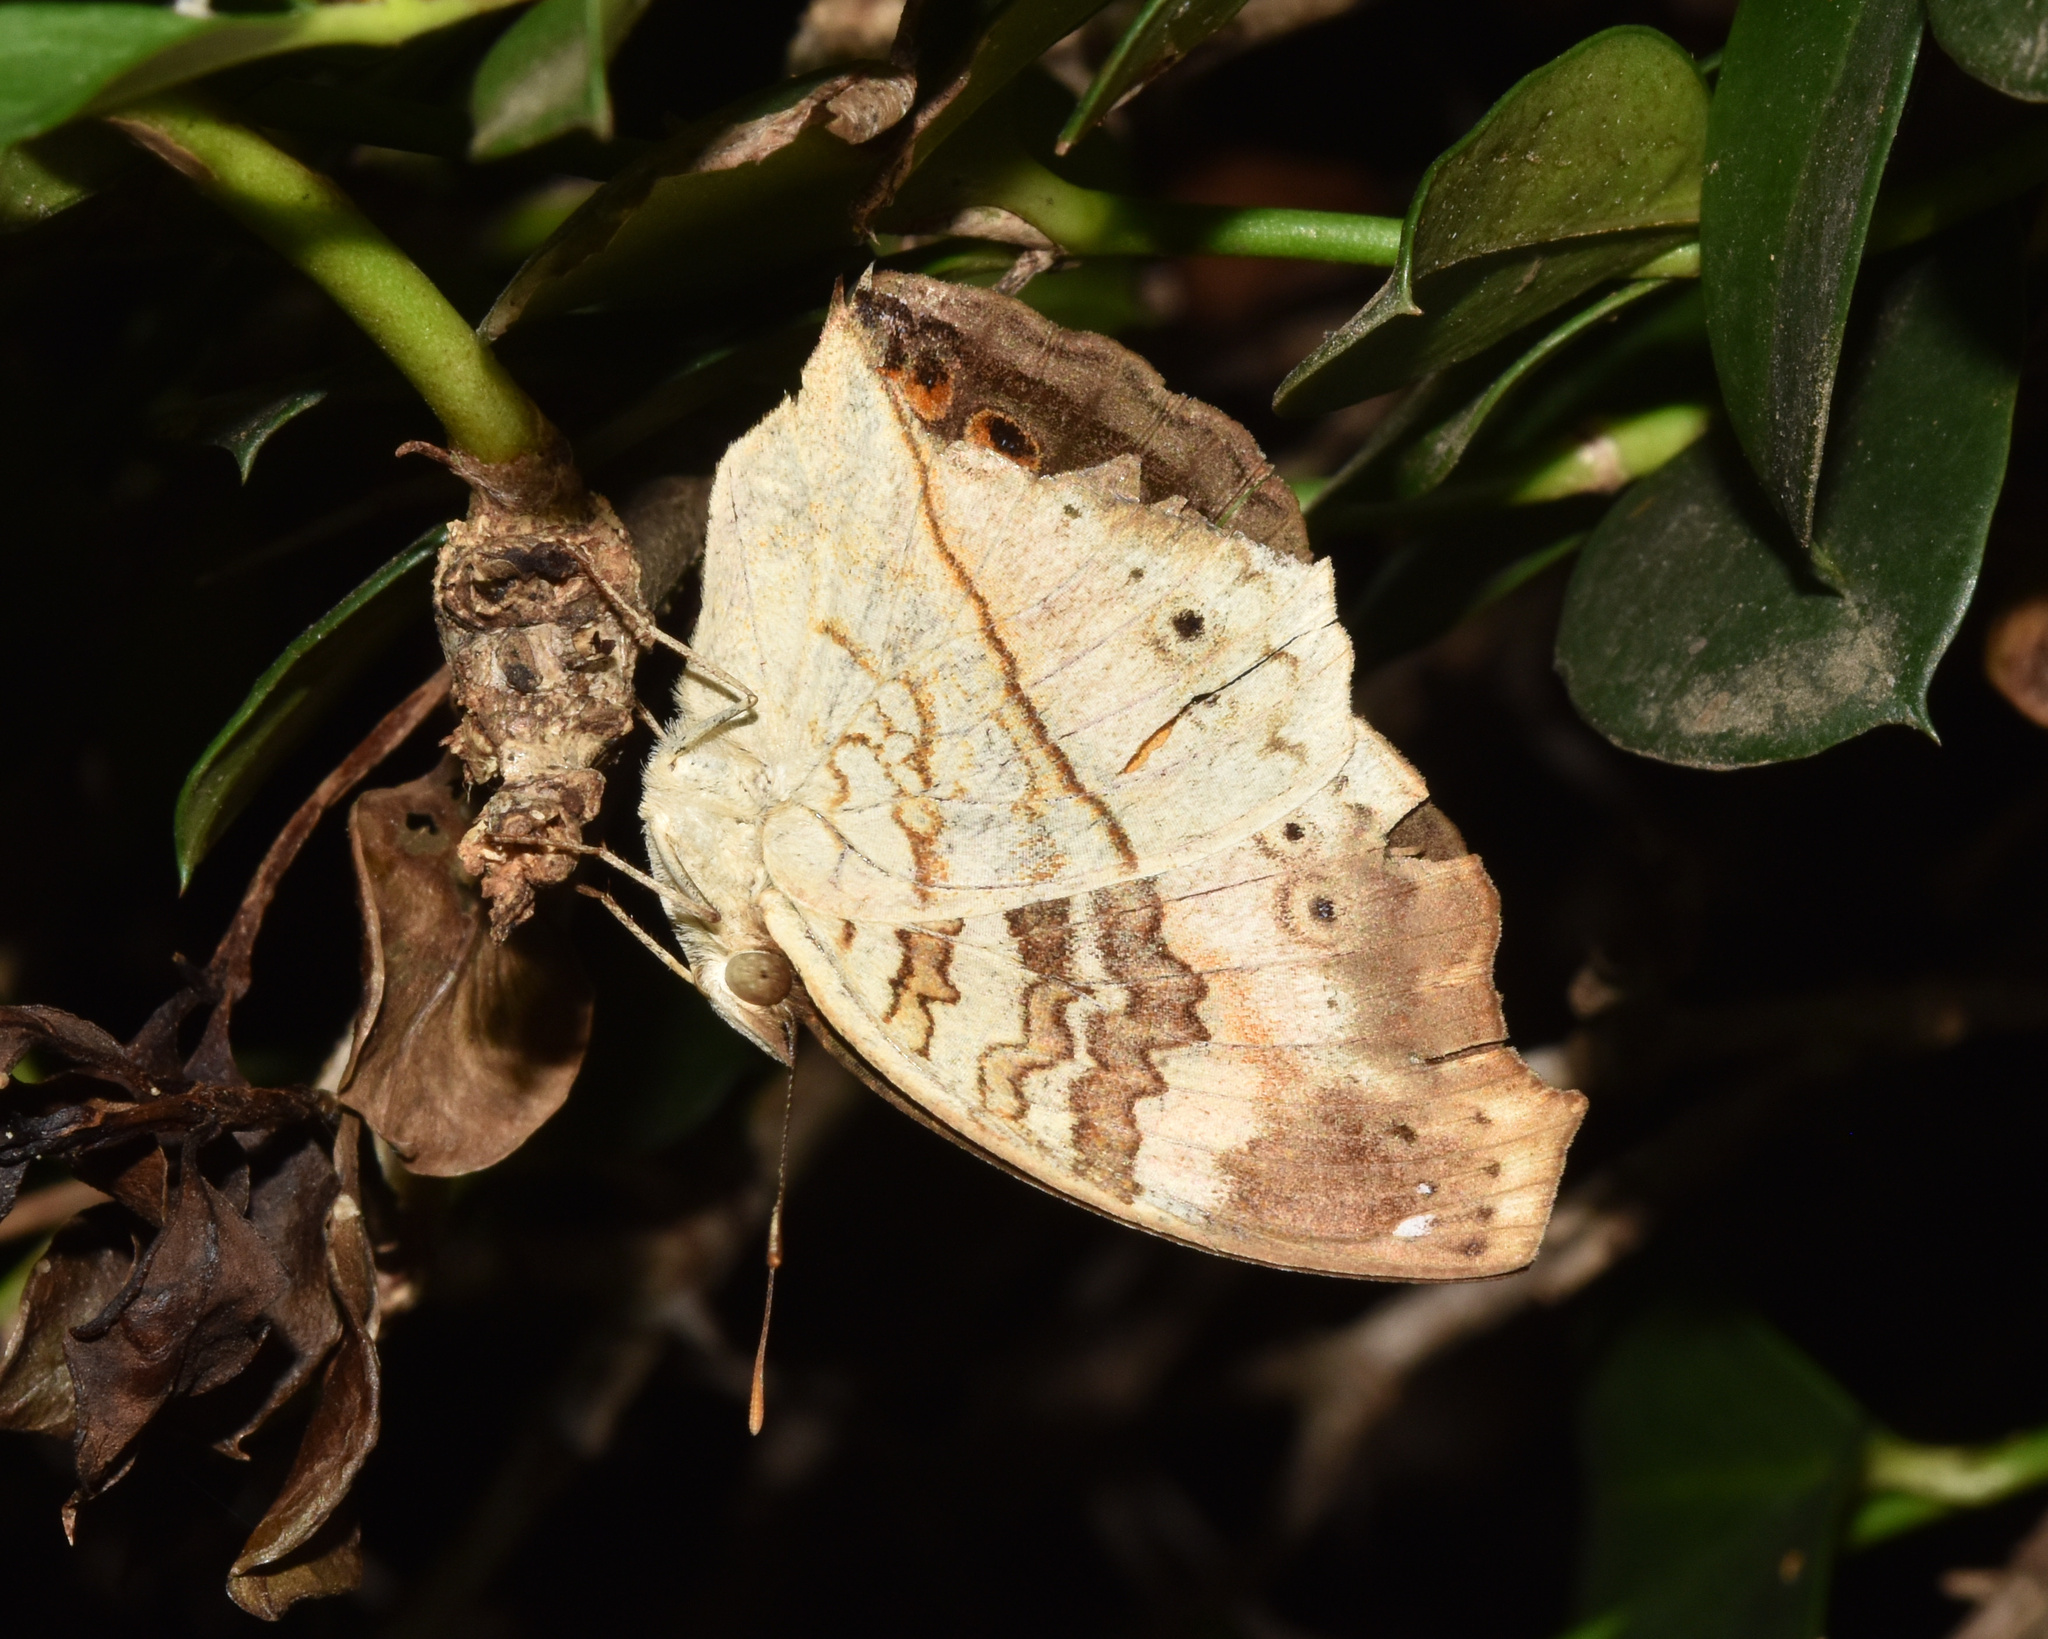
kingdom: Animalia
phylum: Arthropoda
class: Insecta
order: Lepidoptera
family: Nymphalidae
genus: Junonia
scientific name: Junonia terea
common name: Soldier pansy
